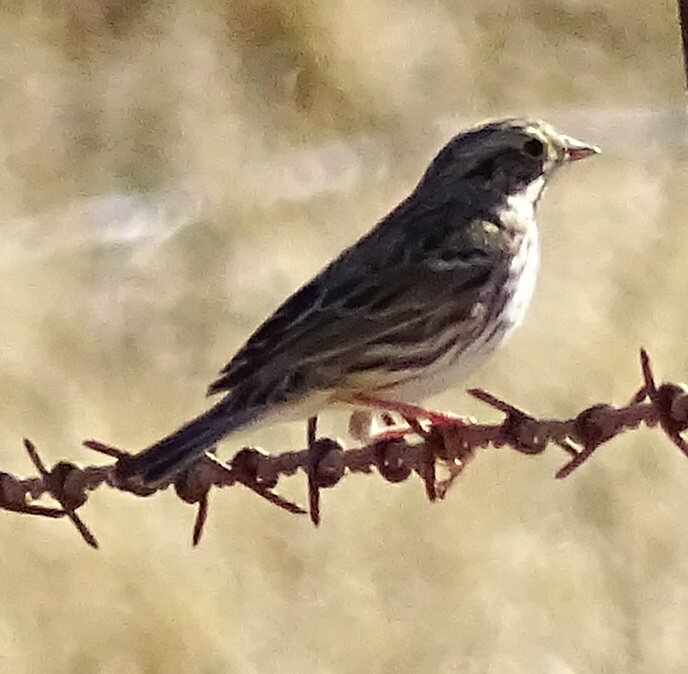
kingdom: Animalia
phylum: Chordata
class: Aves
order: Passeriformes
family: Passerellidae
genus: Passerculus
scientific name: Passerculus sandwichensis
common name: Savannah sparrow
